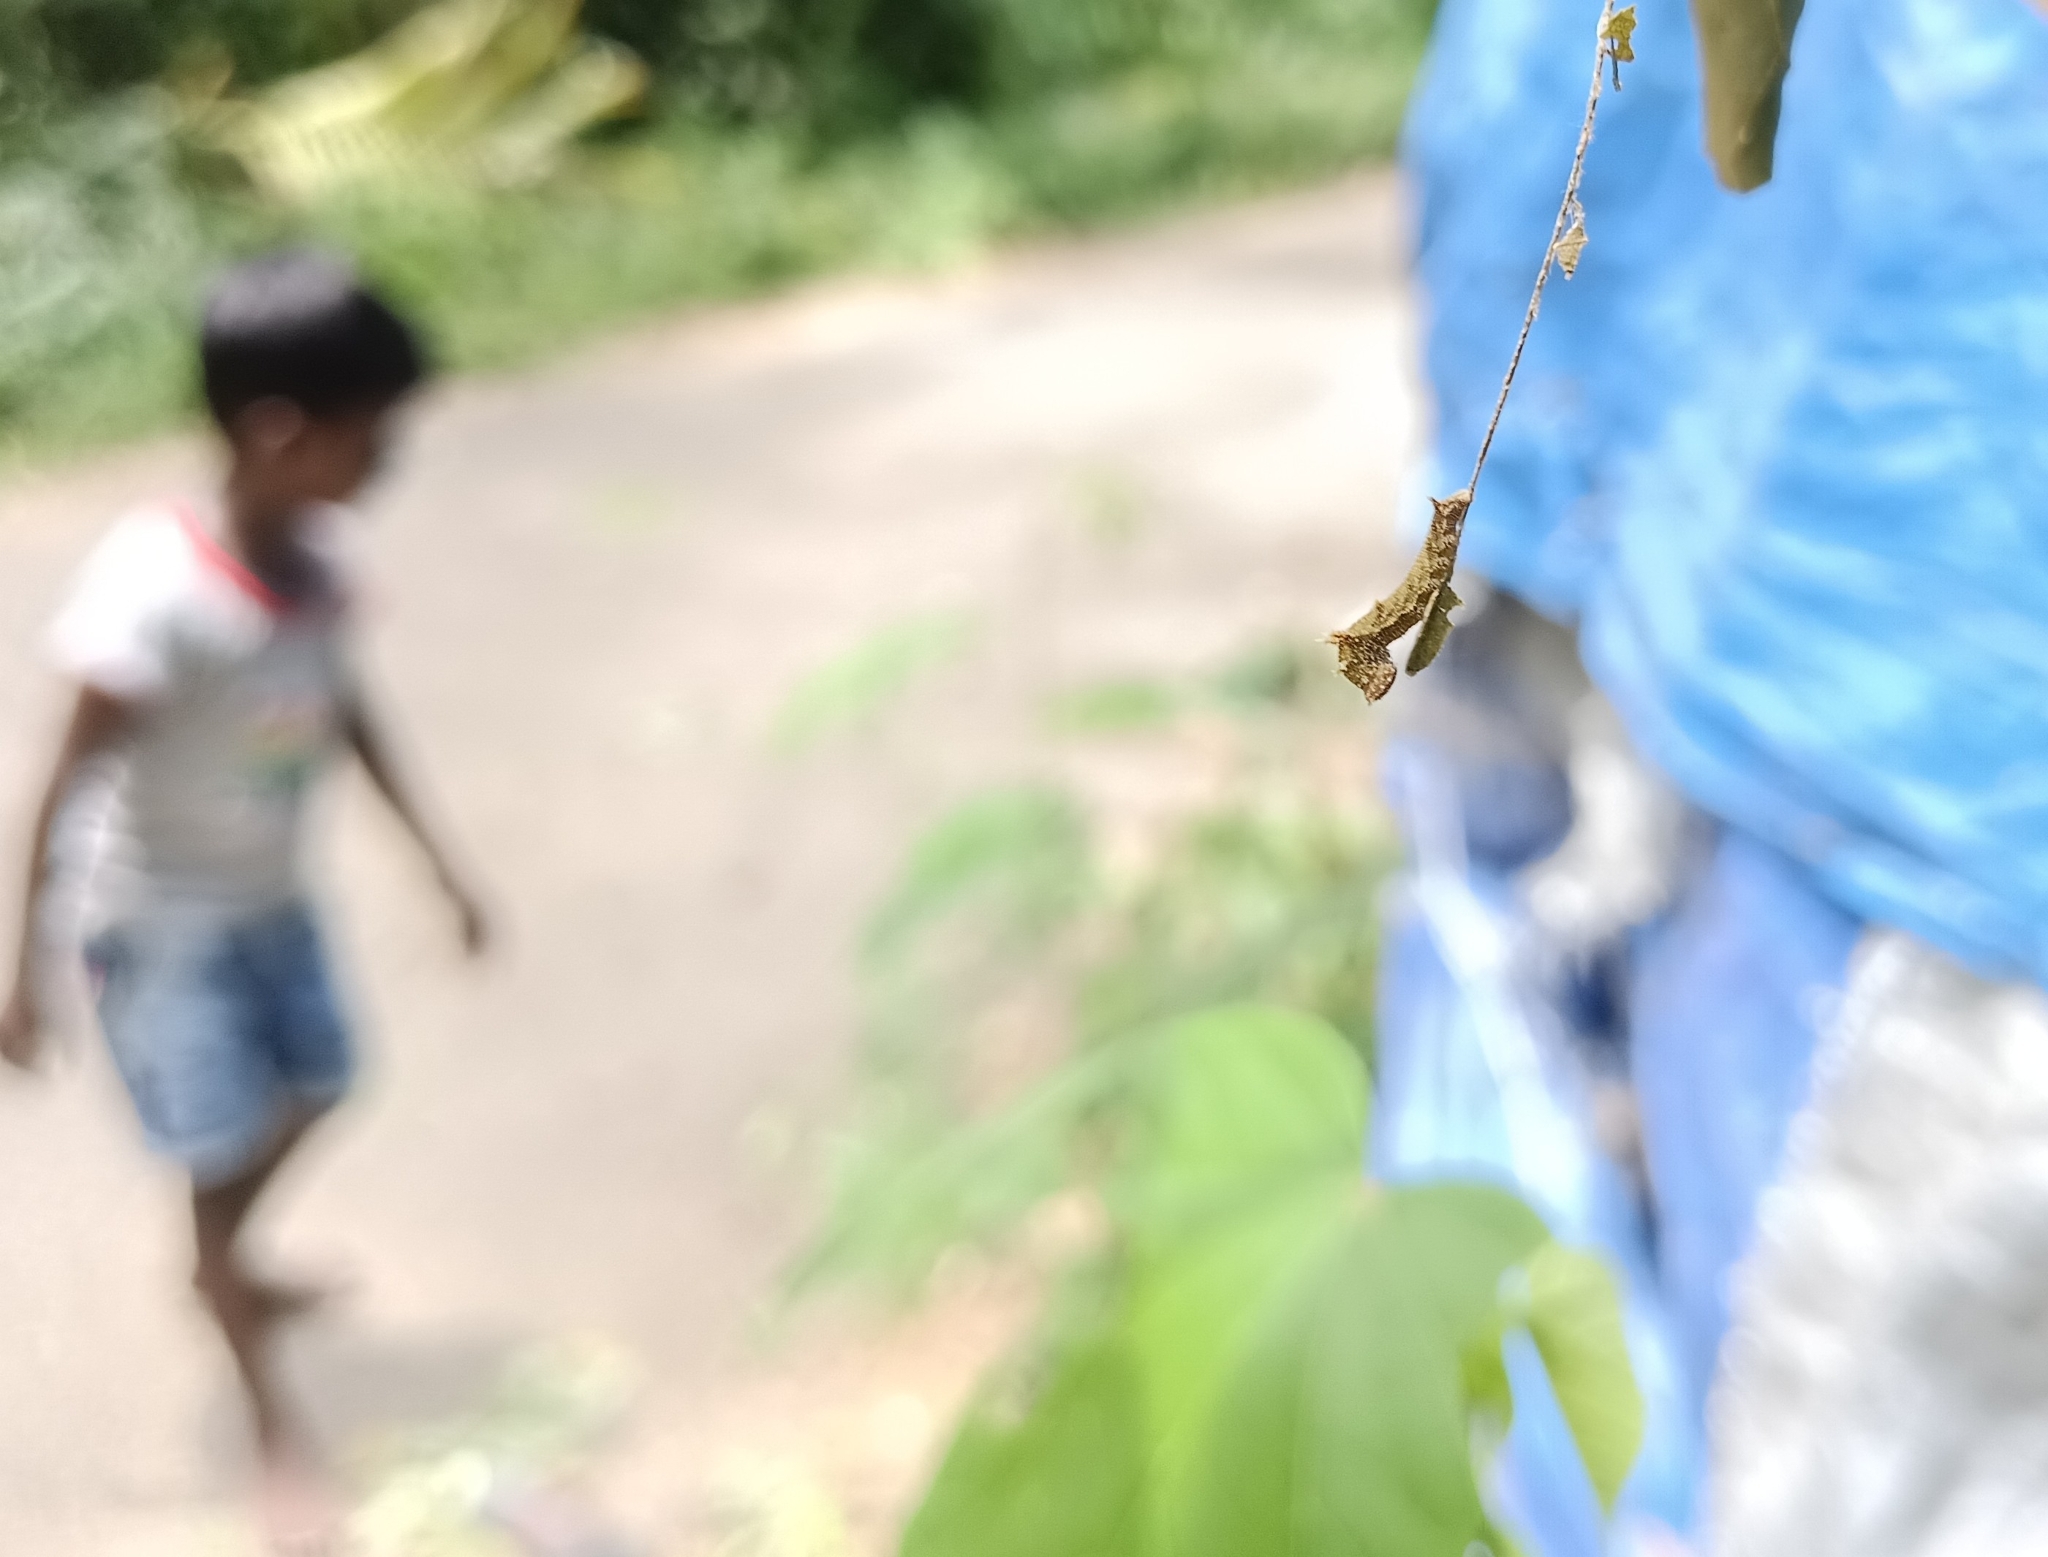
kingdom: Animalia
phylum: Arthropoda
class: Insecta
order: Lepidoptera
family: Nymphalidae
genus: Neptis
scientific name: Neptis jumbah
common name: Chestnut-streaked sailer
